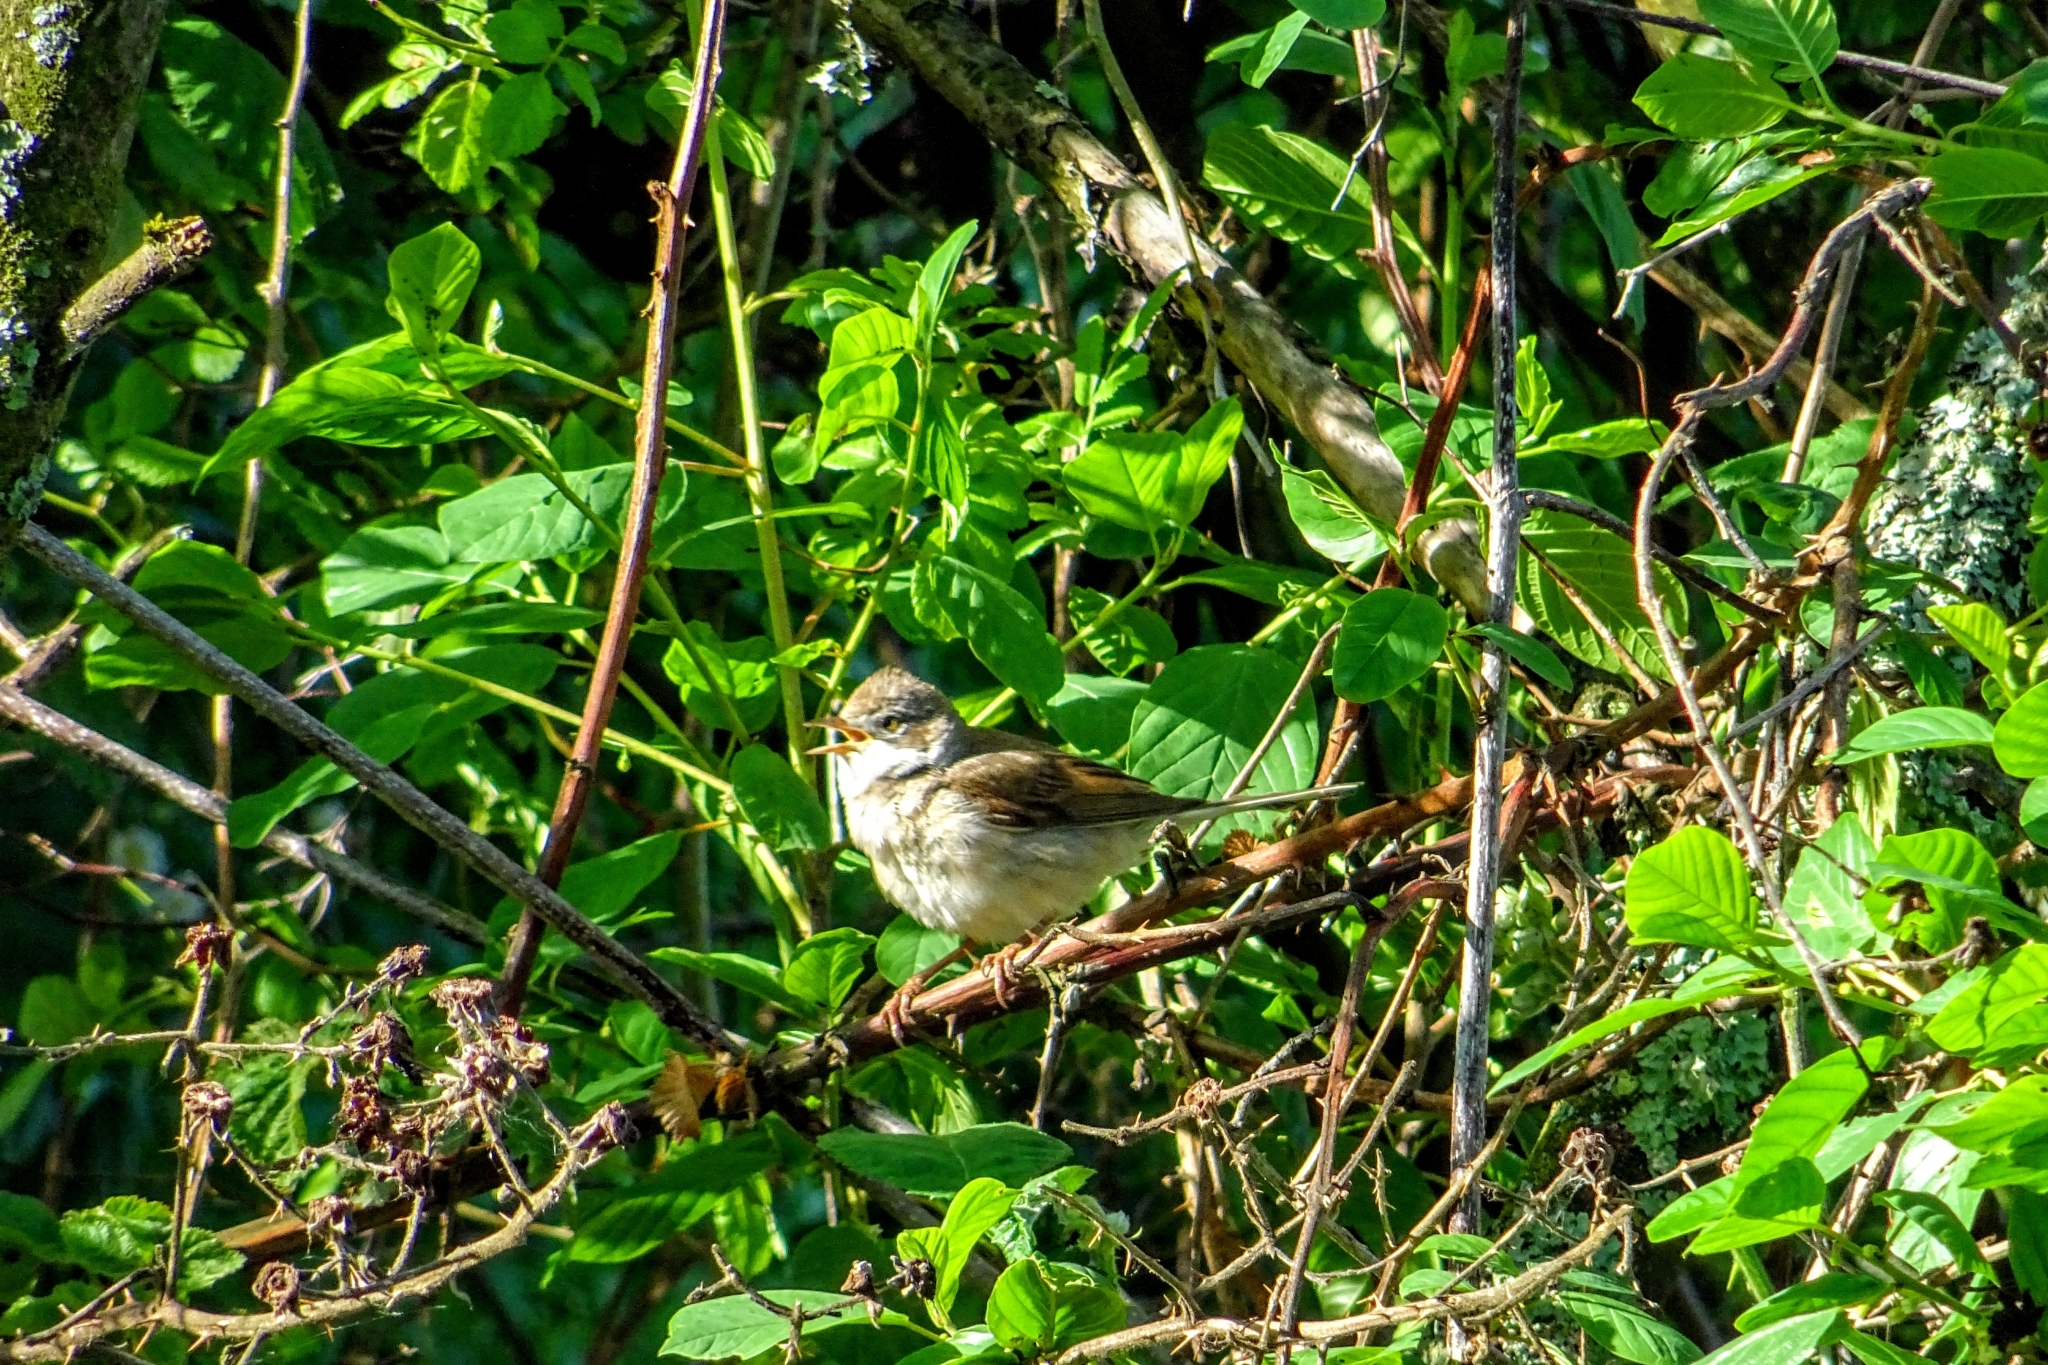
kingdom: Animalia
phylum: Chordata
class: Aves
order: Passeriformes
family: Sylviidae
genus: Sylvia
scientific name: Sylvia communis
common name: Common whitethroat
